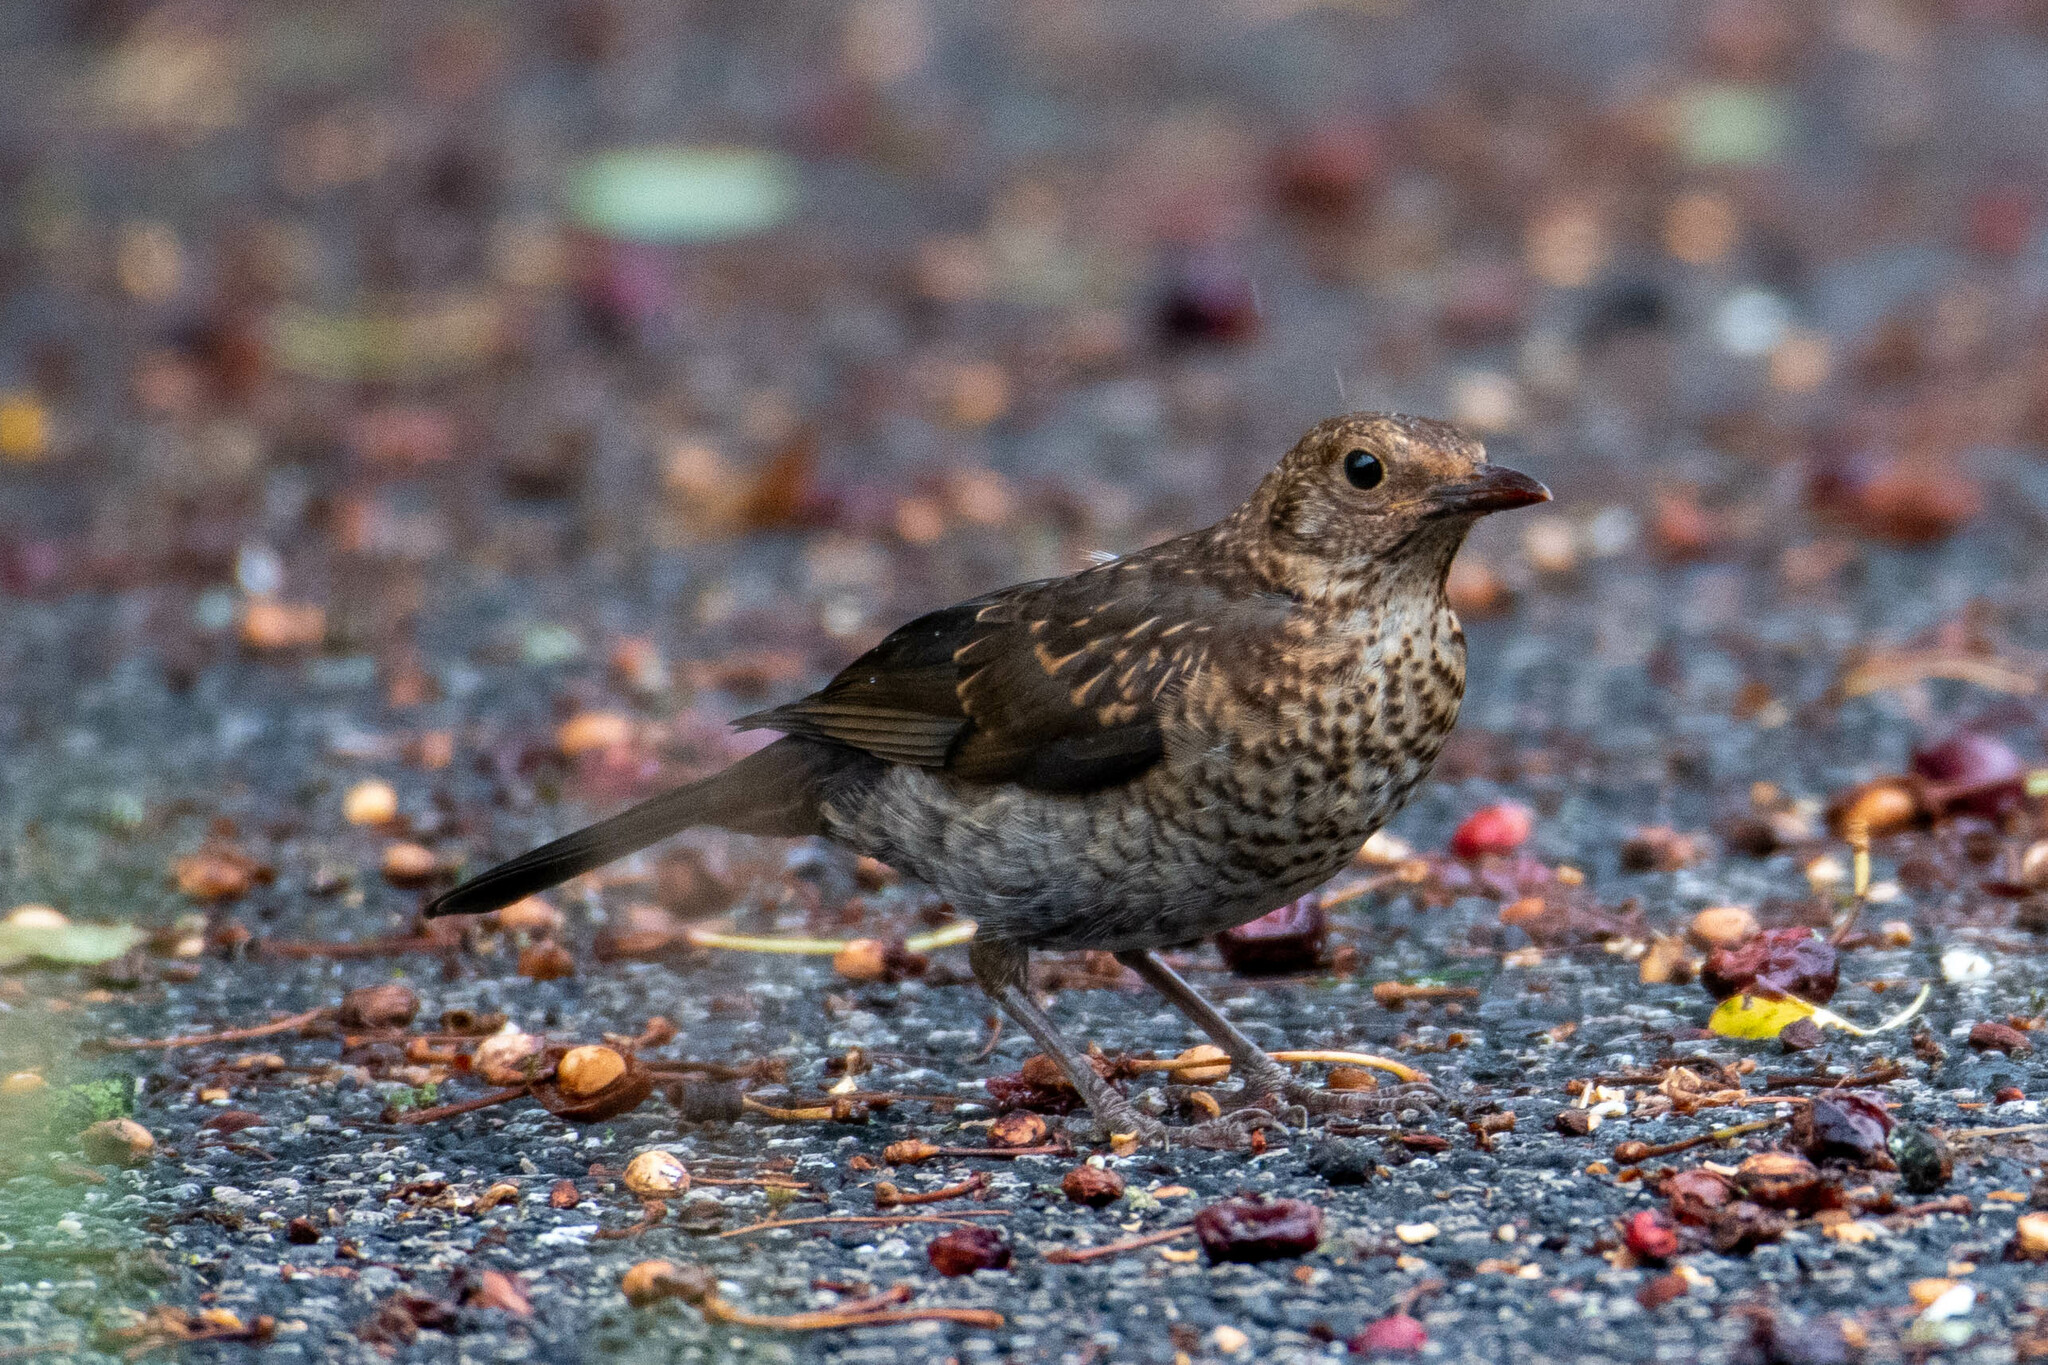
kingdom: Animalia
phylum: Chordata
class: Aves
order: Passeriformes
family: Turdidae
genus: Turdus
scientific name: Turdus merula
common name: Common blackbird
